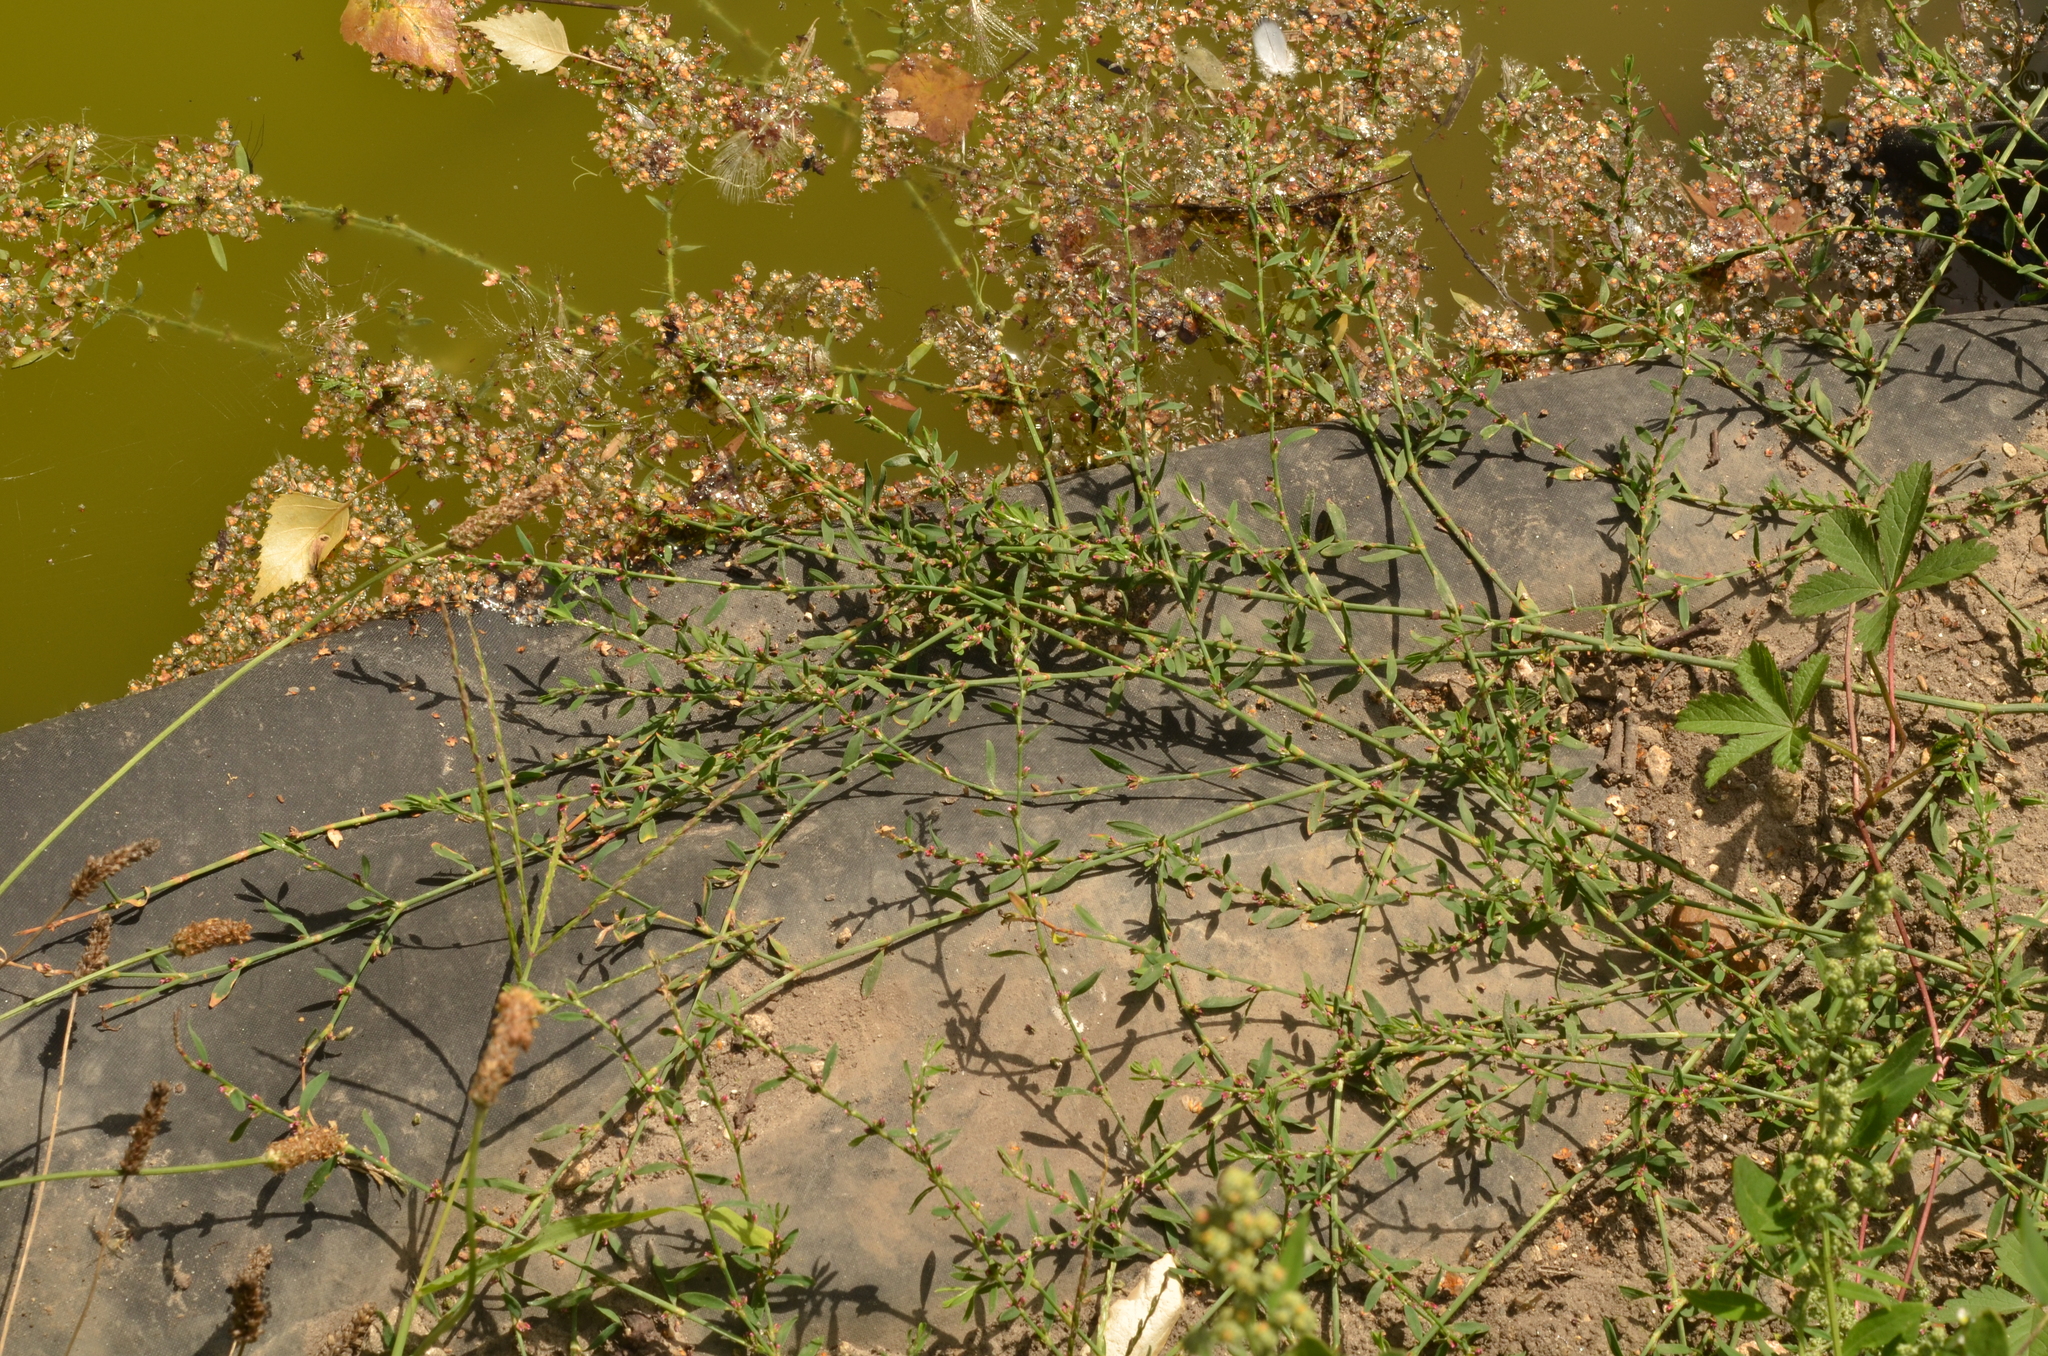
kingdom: Plantae
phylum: Tracheophyta
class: Magnoliopsida
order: Caryophyllales
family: Polygonaceae
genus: Polygonum
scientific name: Polygonum aviculare
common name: Prostrate knotweed
